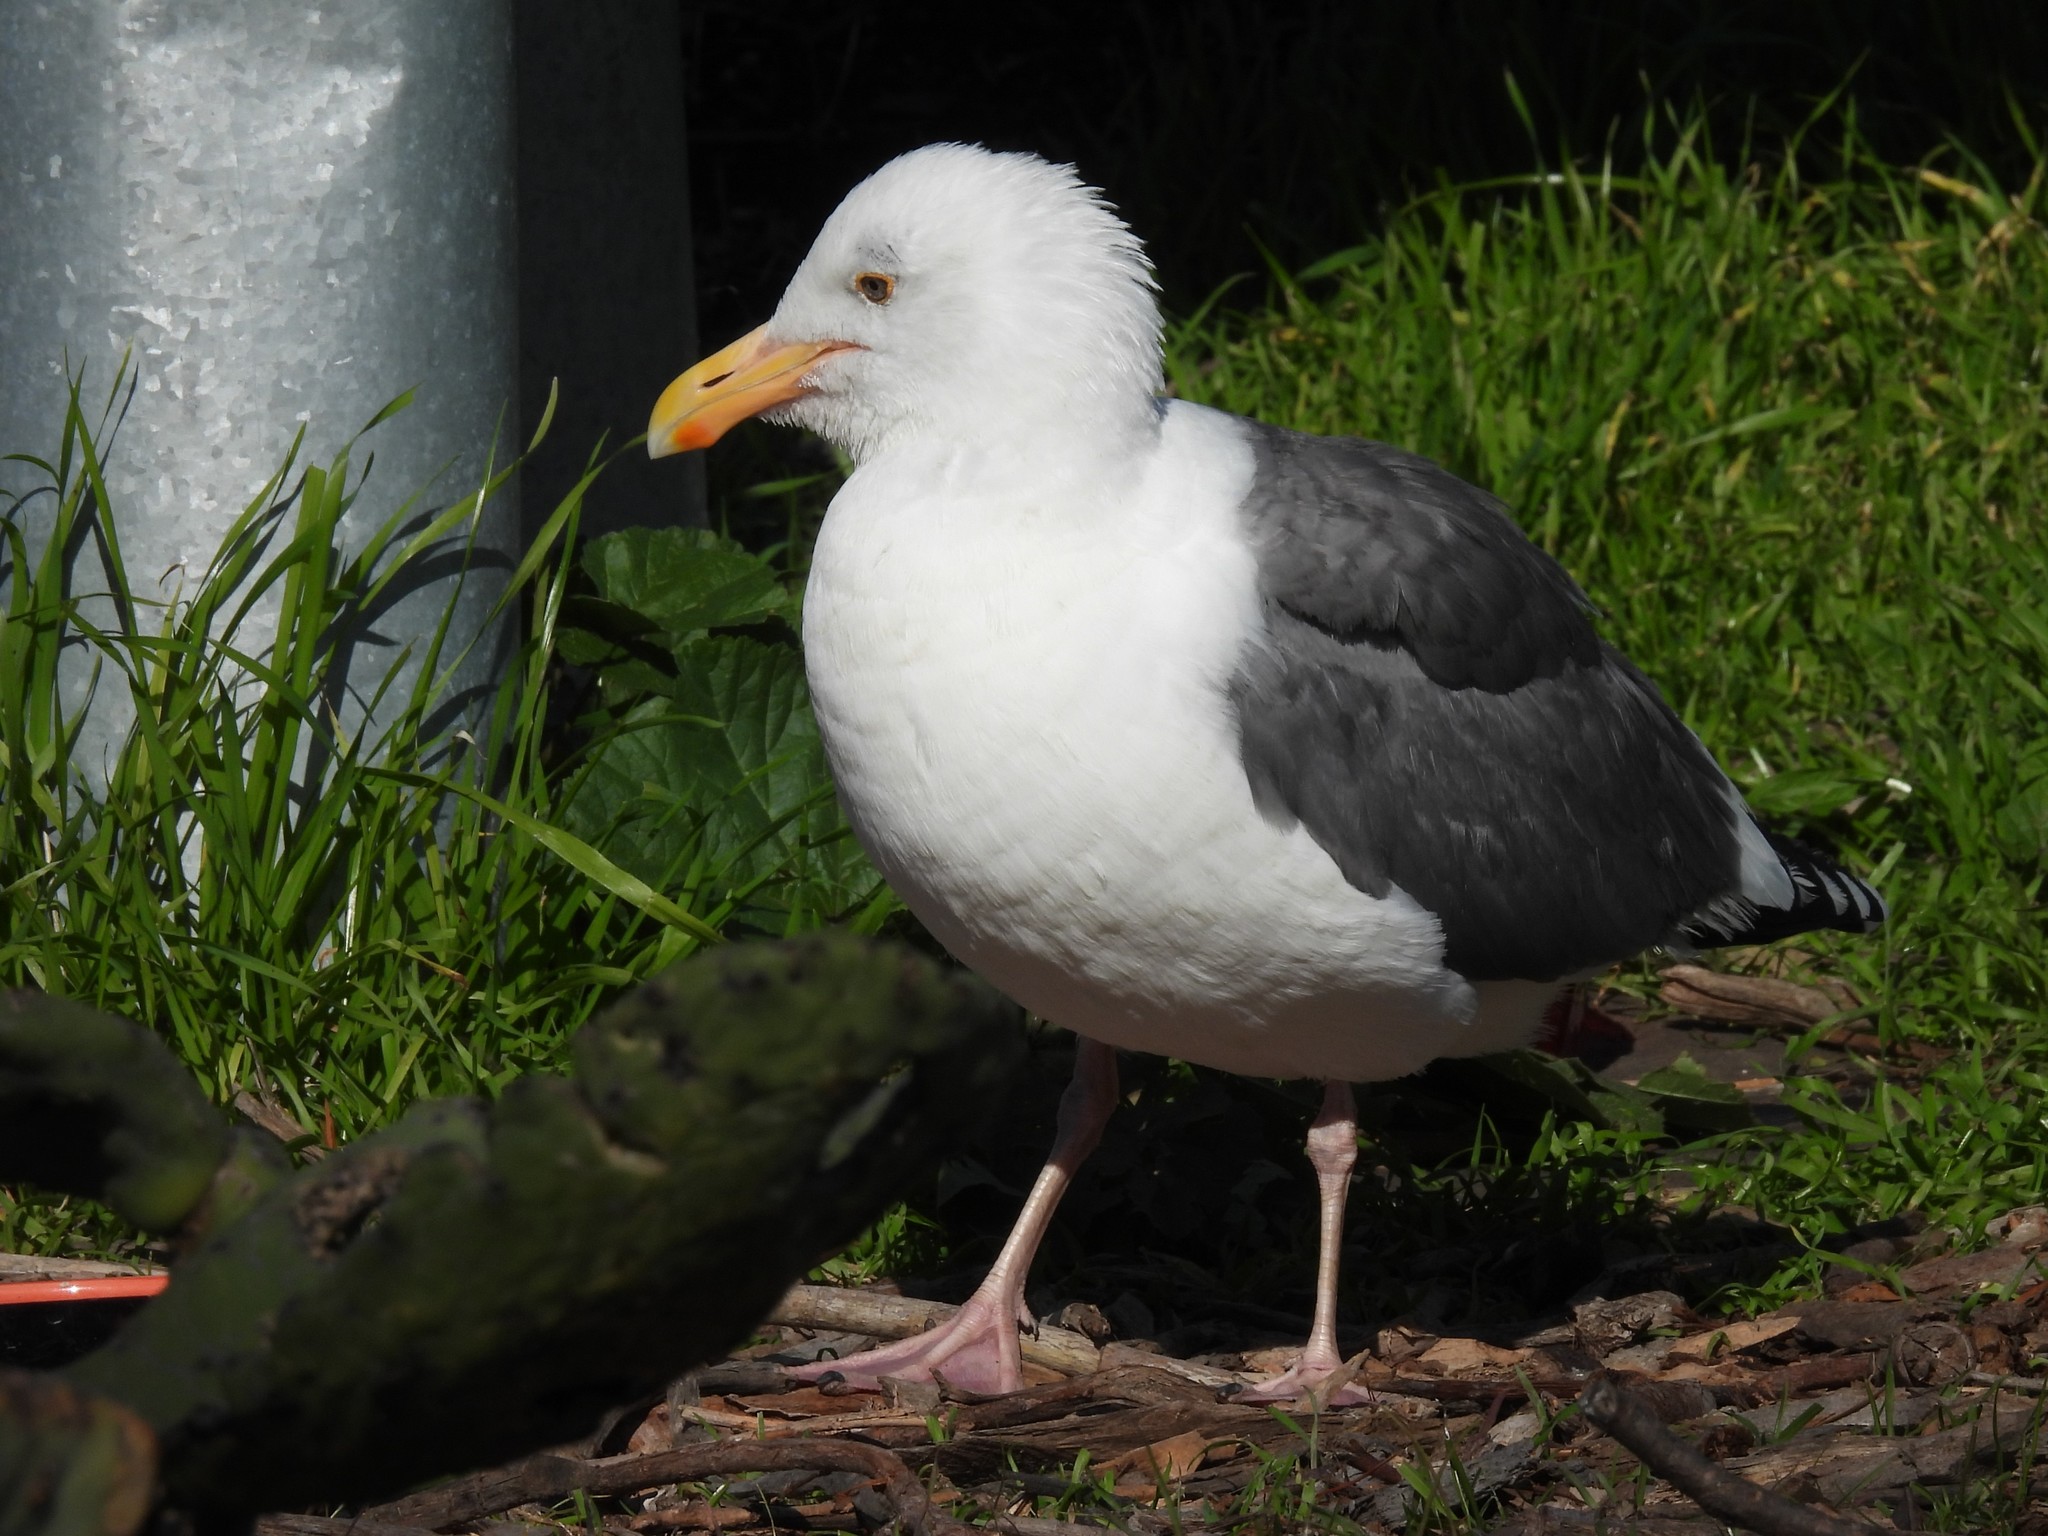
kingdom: Animalia
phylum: Chordata
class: Aves
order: Charadriiformes
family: Laridae
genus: Larus
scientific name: Larus occidentalis
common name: Western gull
